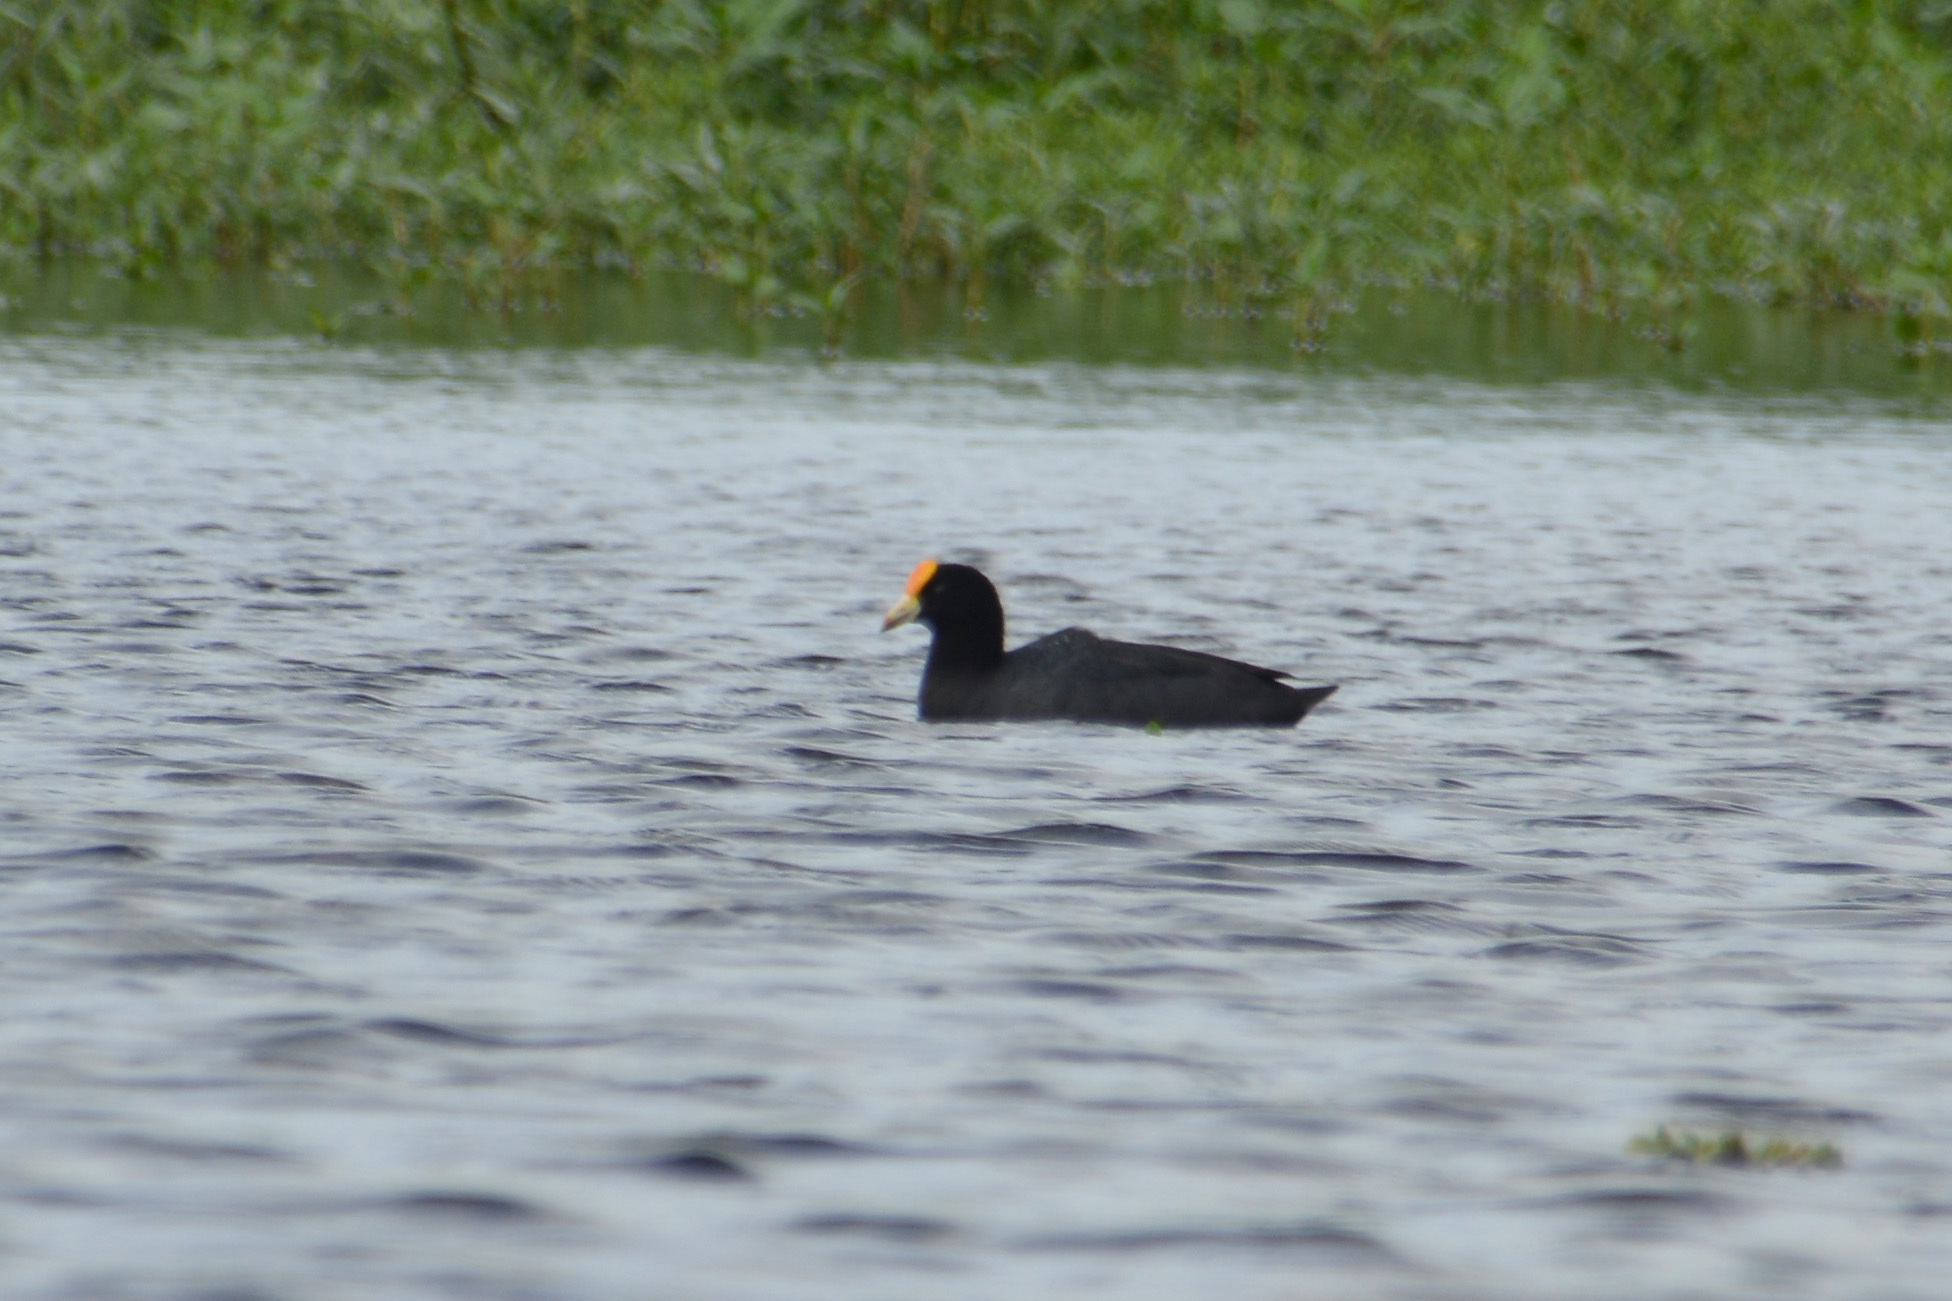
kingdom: Animalia
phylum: Chordata
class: Aves
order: Gruiformes
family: Rallidae
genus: Fulica
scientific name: Fulica leucoptera
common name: White-winged coot
